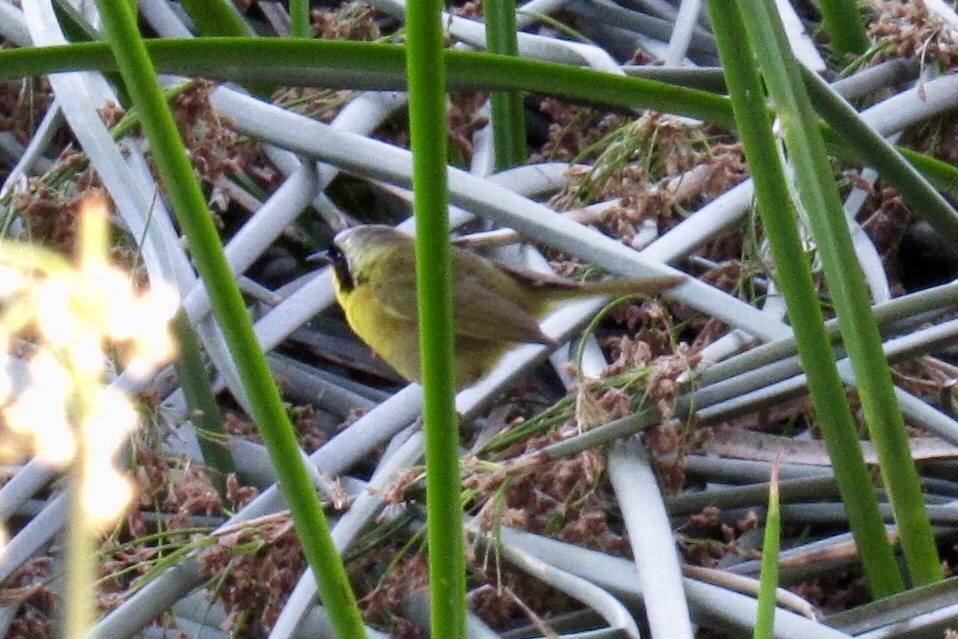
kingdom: Animalia
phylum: Chordata
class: Aves
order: Passeriformes
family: Parulidae
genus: Geothlypis
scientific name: Geothlypis trichas
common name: Common yellowthroat
